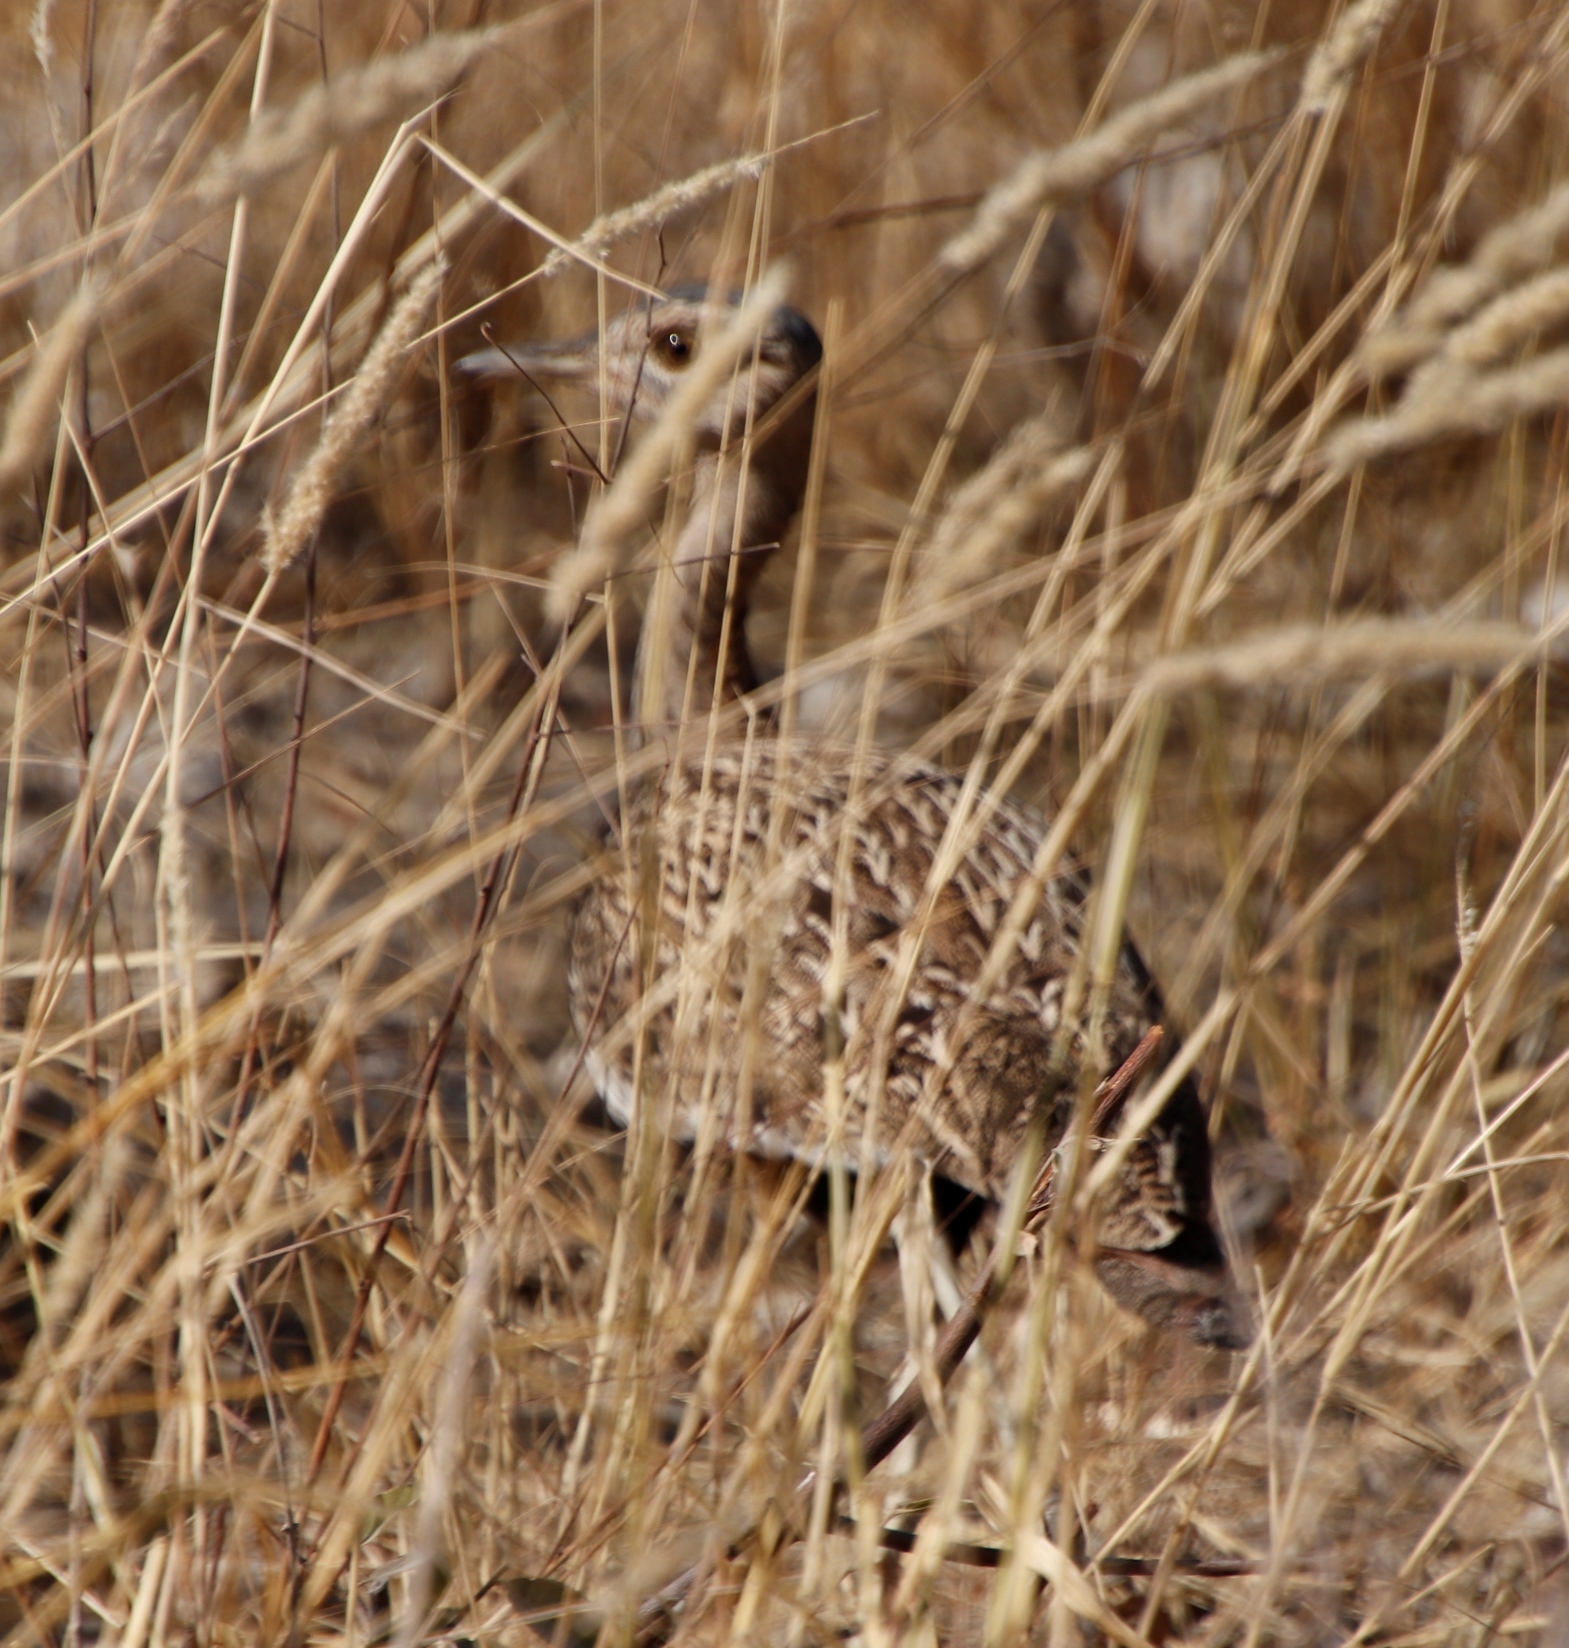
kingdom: Animalia
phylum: Chordata
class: Aves
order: Otidiformes
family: Otididae
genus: Lophotis
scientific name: Lophotis ruficrista
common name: Red-crested korhaan
